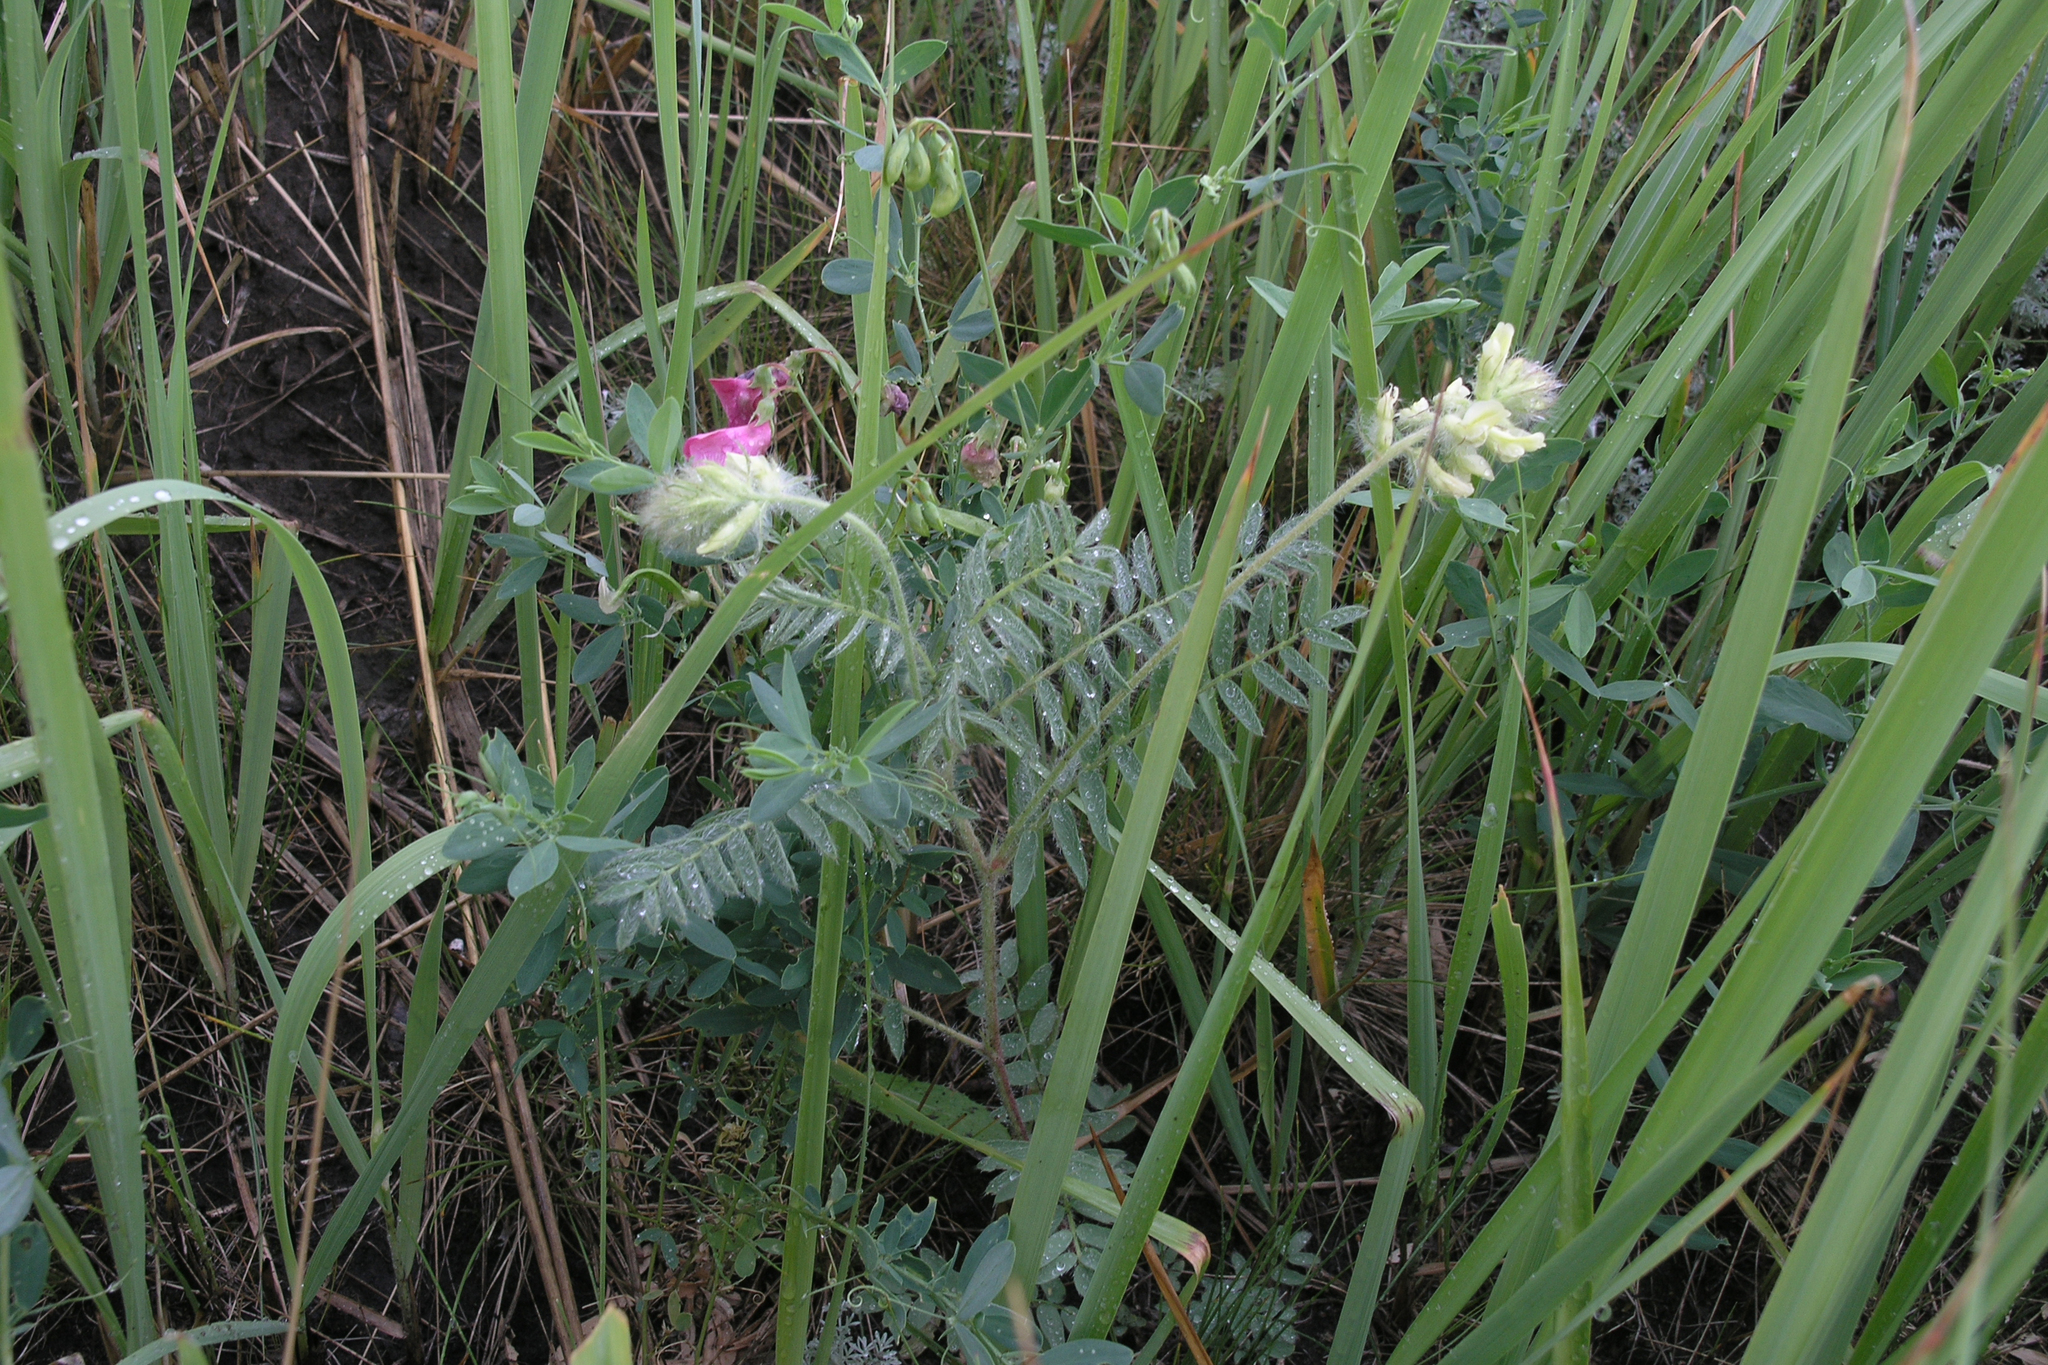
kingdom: Plantae
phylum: Tracheophyta
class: Magnoliopsida
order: Fabales
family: Fabaceae
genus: Oxytropis
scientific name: Oxytropis pilosa
